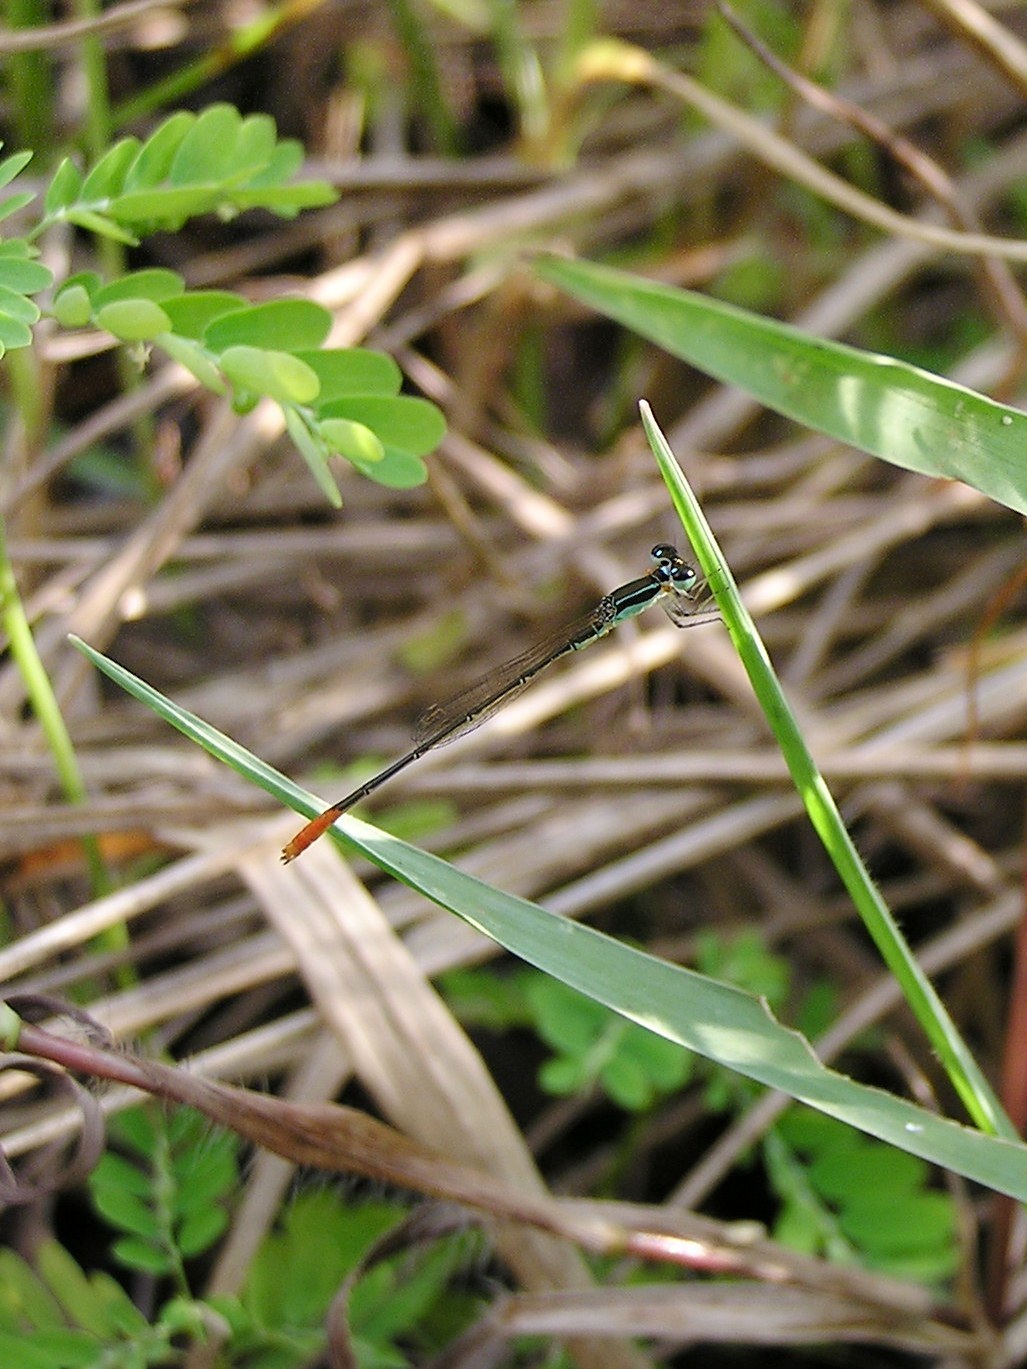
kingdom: Animalia
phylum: Arthropoda
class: Insecta
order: Odonata
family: Coenagrionidae
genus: Agriocnemis
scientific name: Agriocnemis femina
